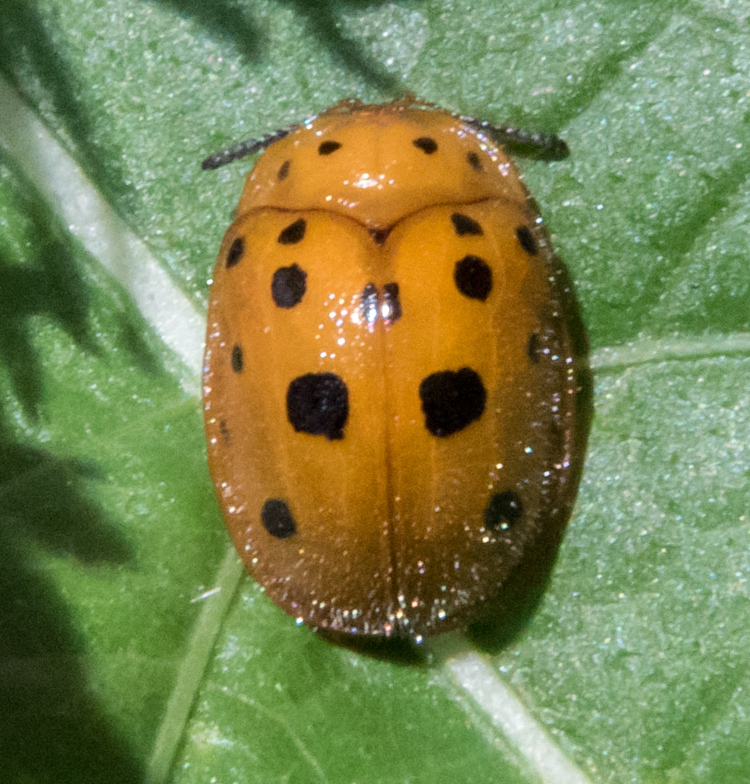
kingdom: Animalia
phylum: Arthropoda
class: Insecta
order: Coleoptera
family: Chrysomelidae
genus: Chelymorpha
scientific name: Chelymorpha phytophagica
